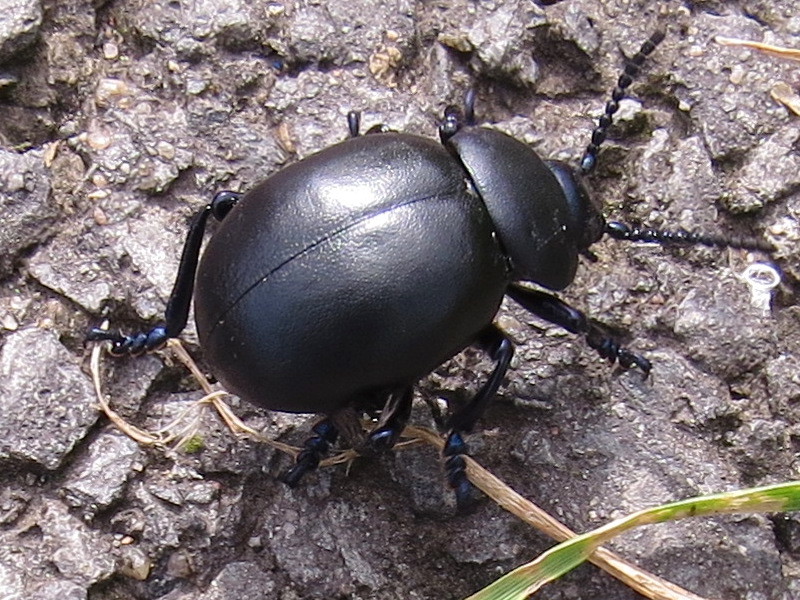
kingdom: Animalia
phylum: Arthropoda
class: Insecta
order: Coleoptera
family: Chrysomelidae
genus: Timarcha
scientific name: Timarcha tenebricosa
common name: Bloody-nosed beetle
